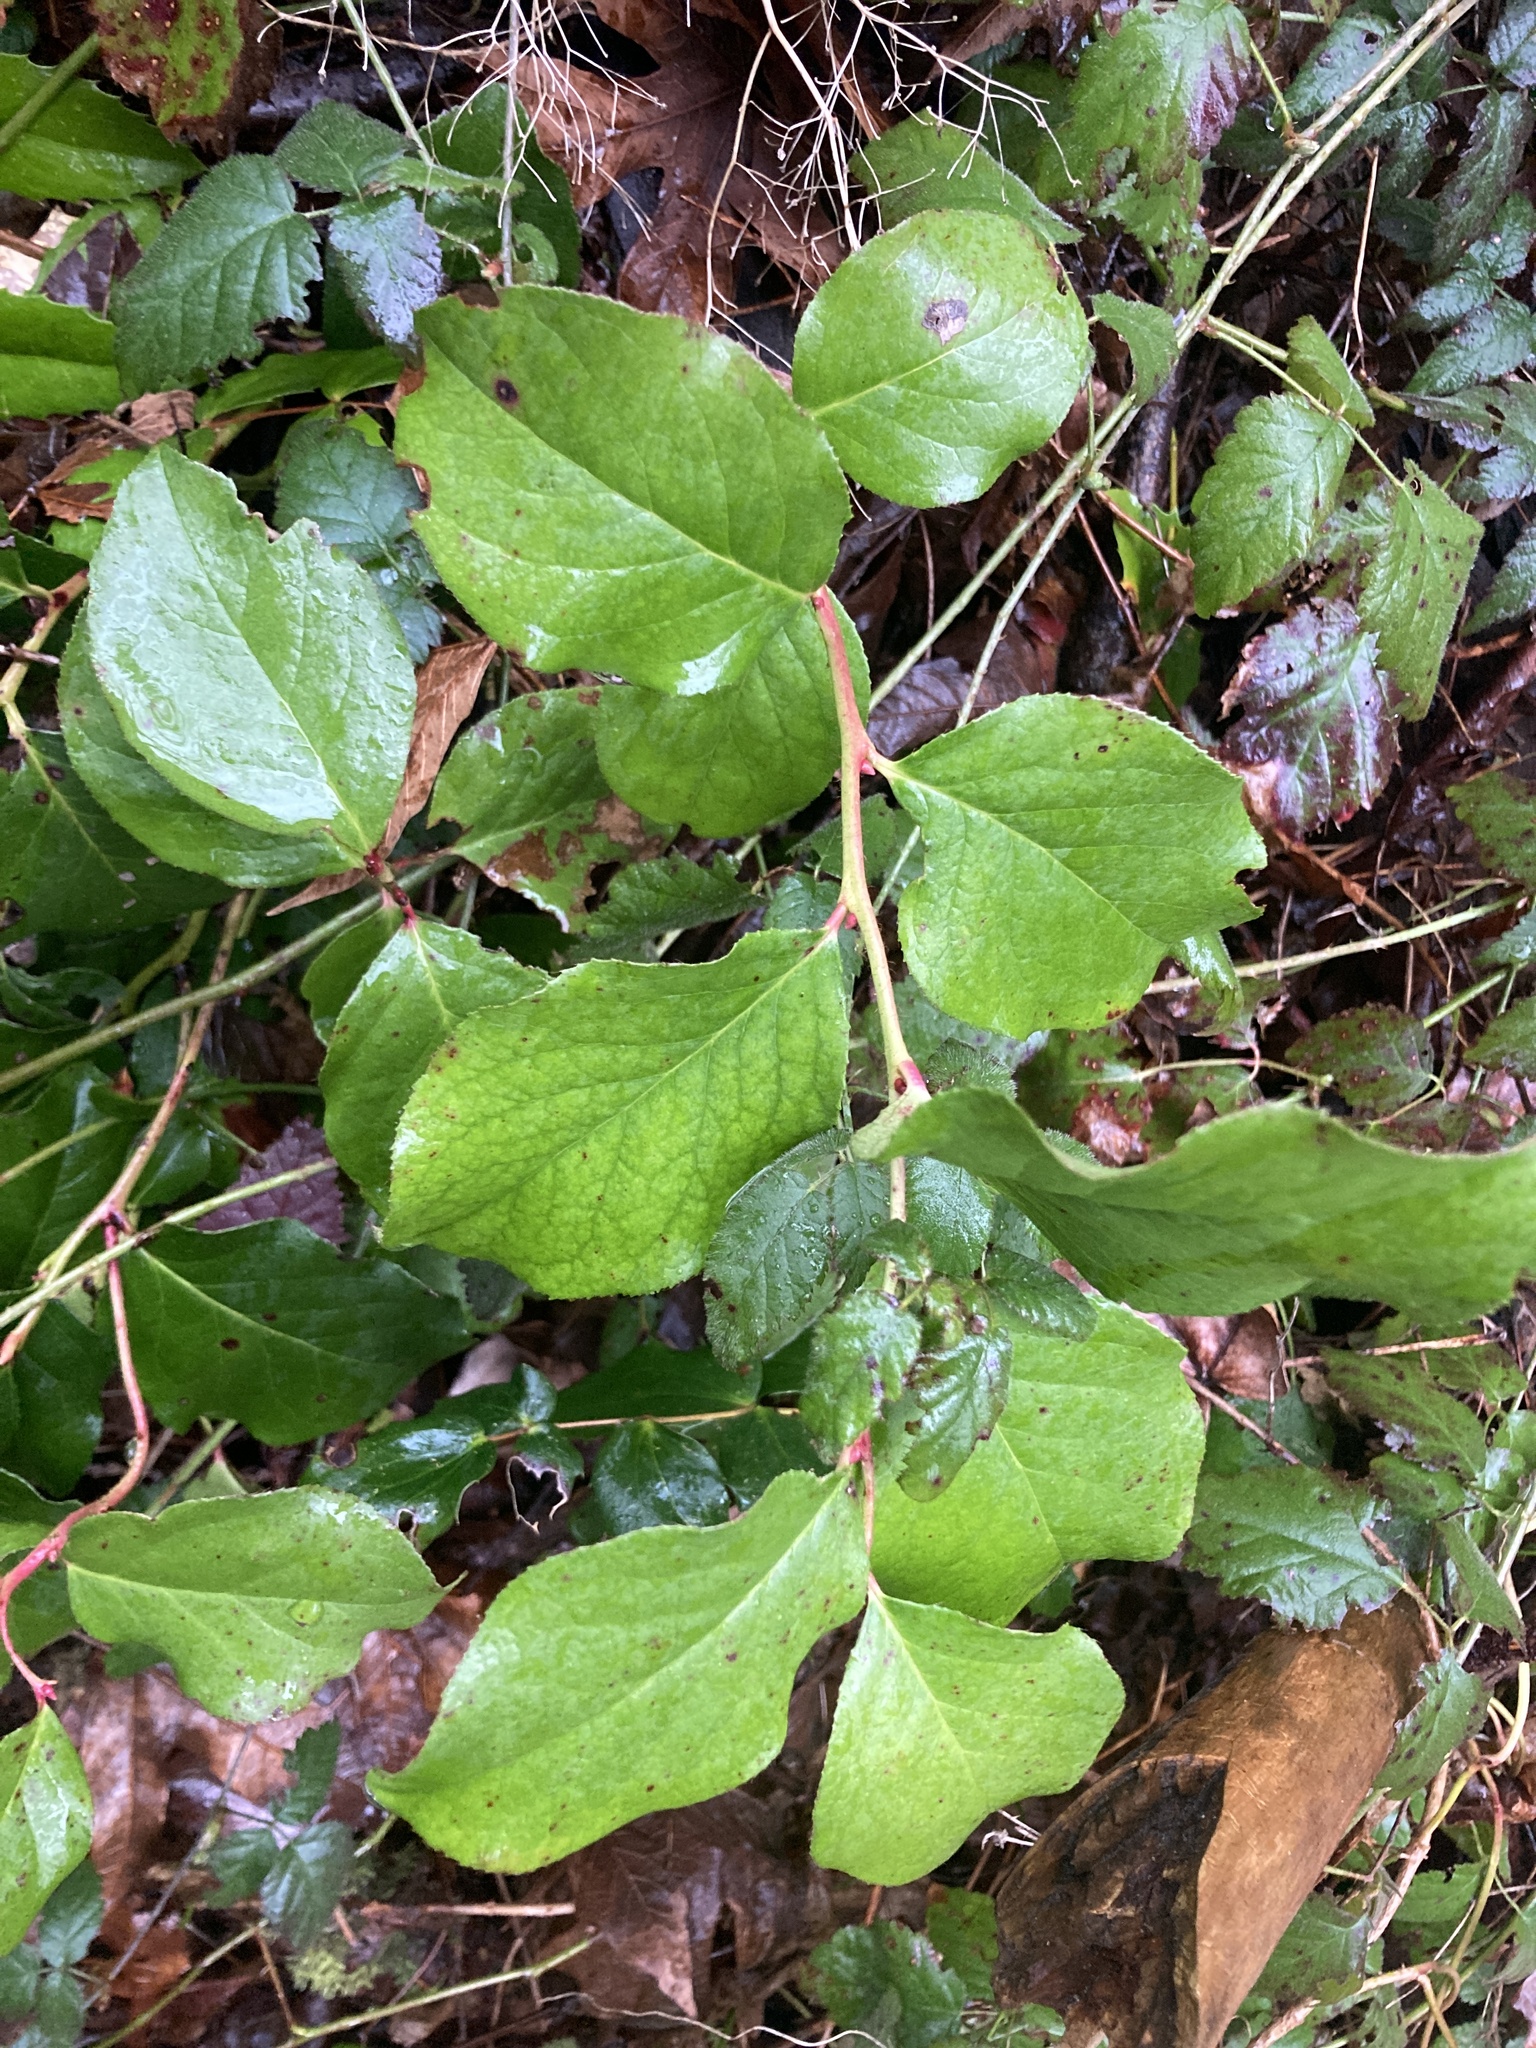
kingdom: Plantae
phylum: Tracheophyta
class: Magnoliopsida
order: Ericales
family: Ericaceae
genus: Gaultheria
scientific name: Gaultheria shallon
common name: Shallon
